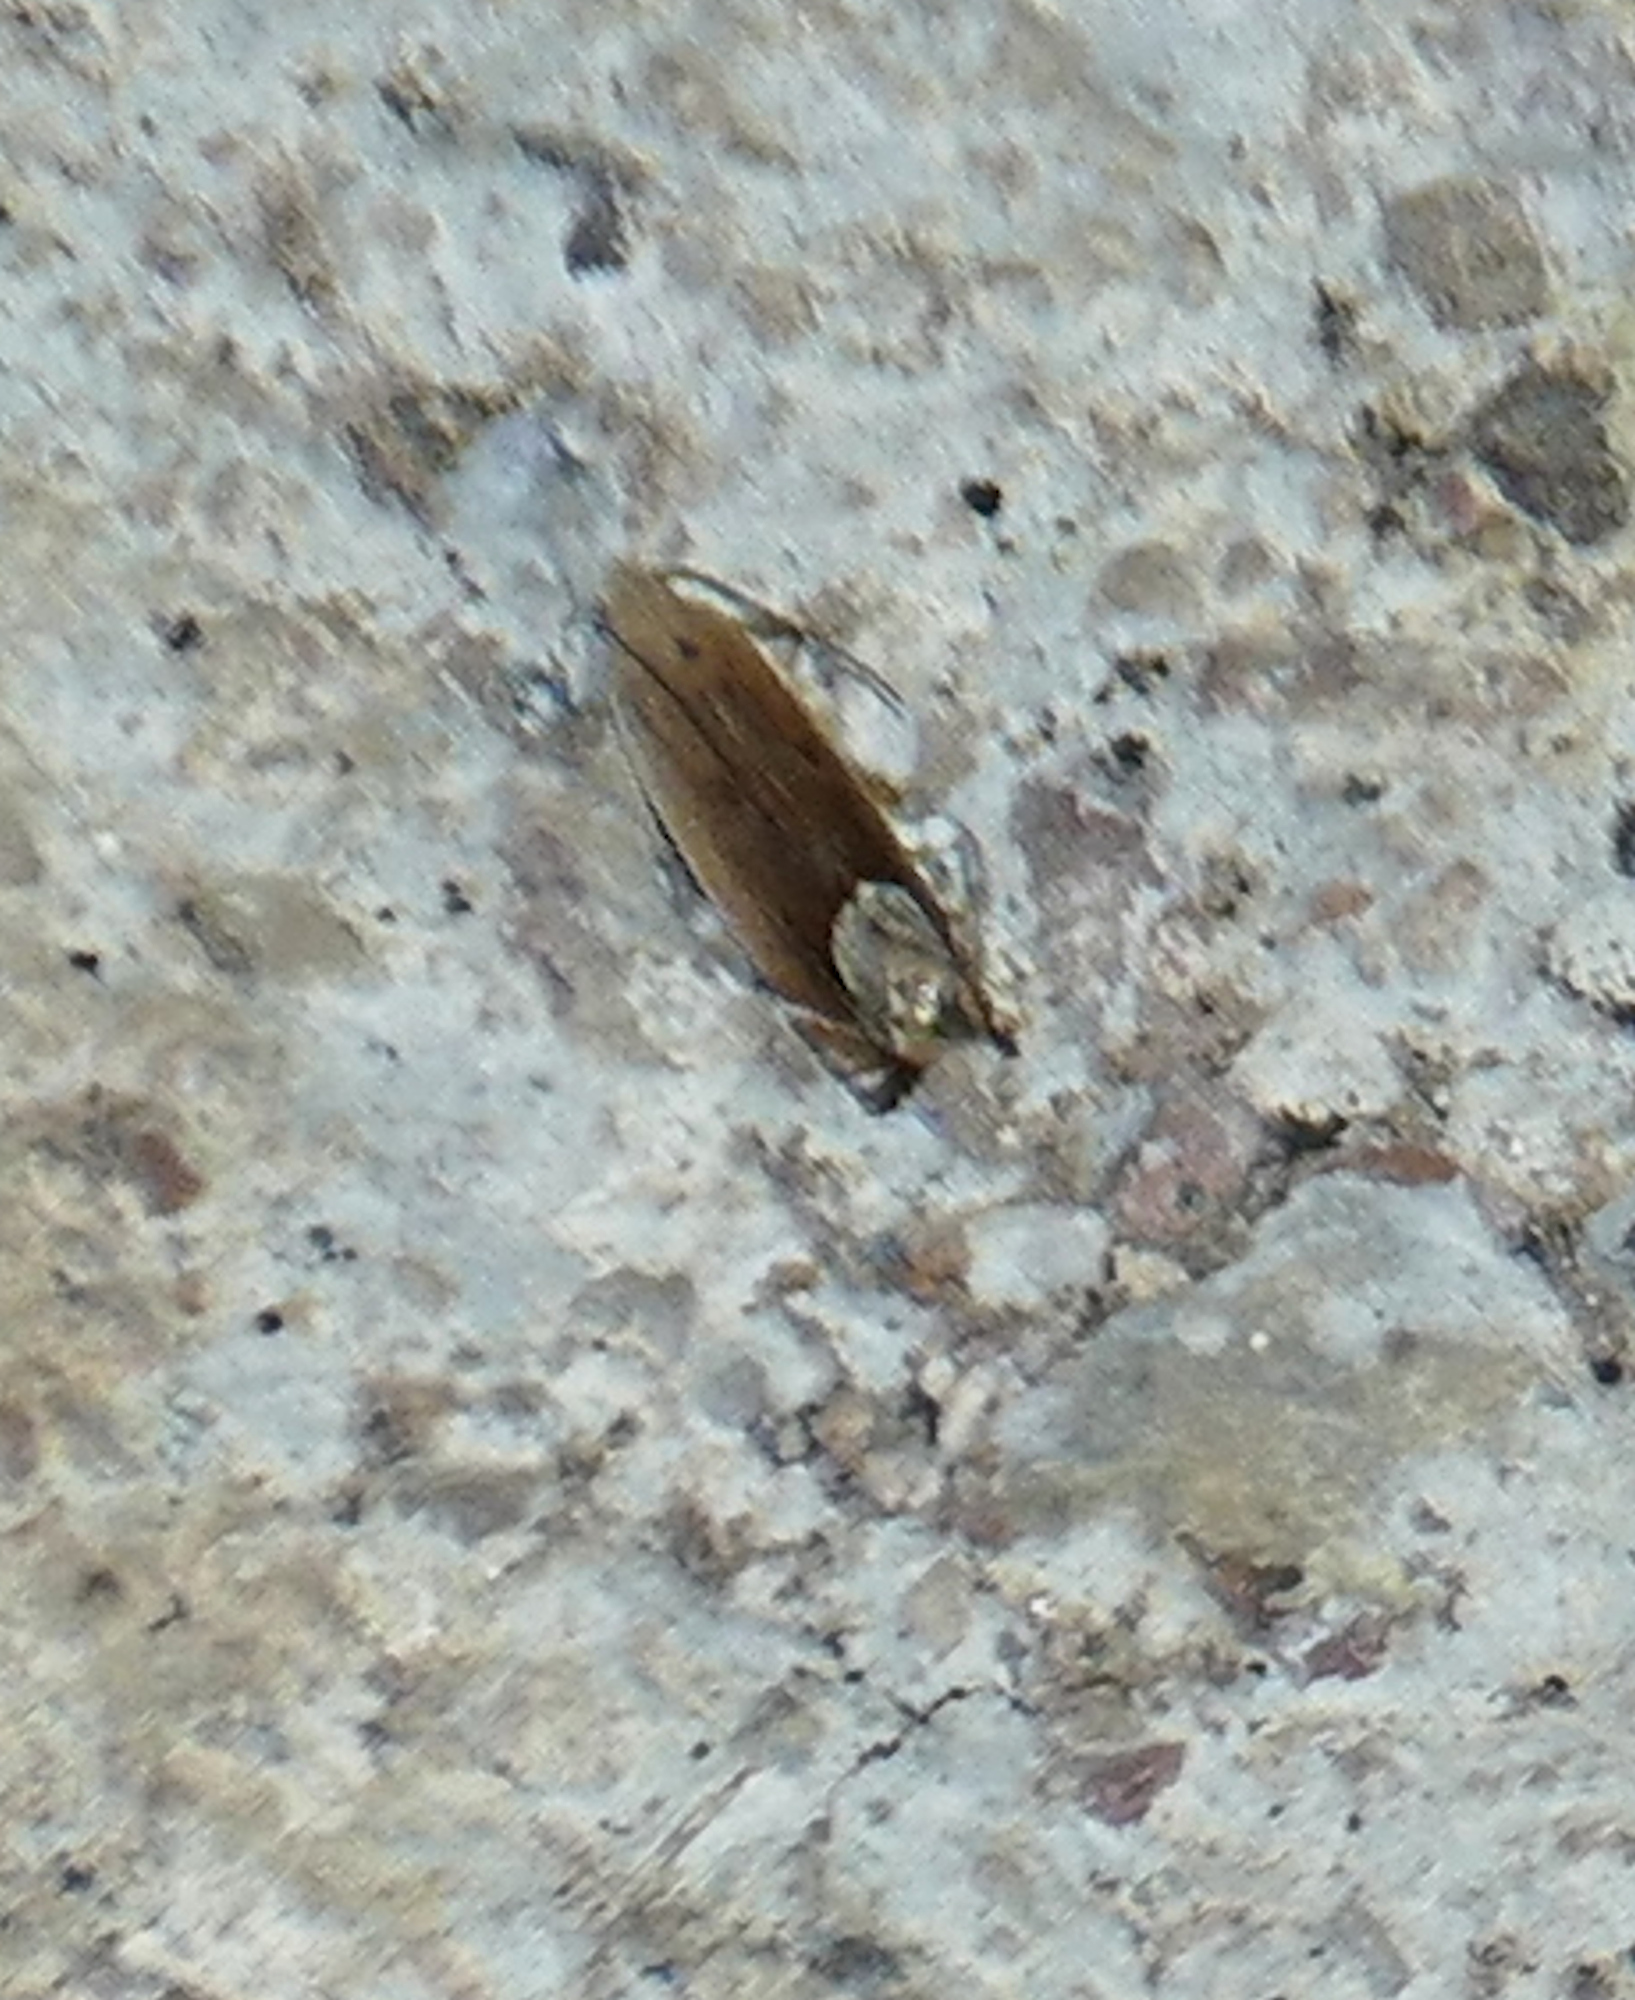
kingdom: Animalia
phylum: Arthropoda
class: Insecta
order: Lepidoptera
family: Gelechiidae
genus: Anacampsis
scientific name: Anacampsis paltodoriella
